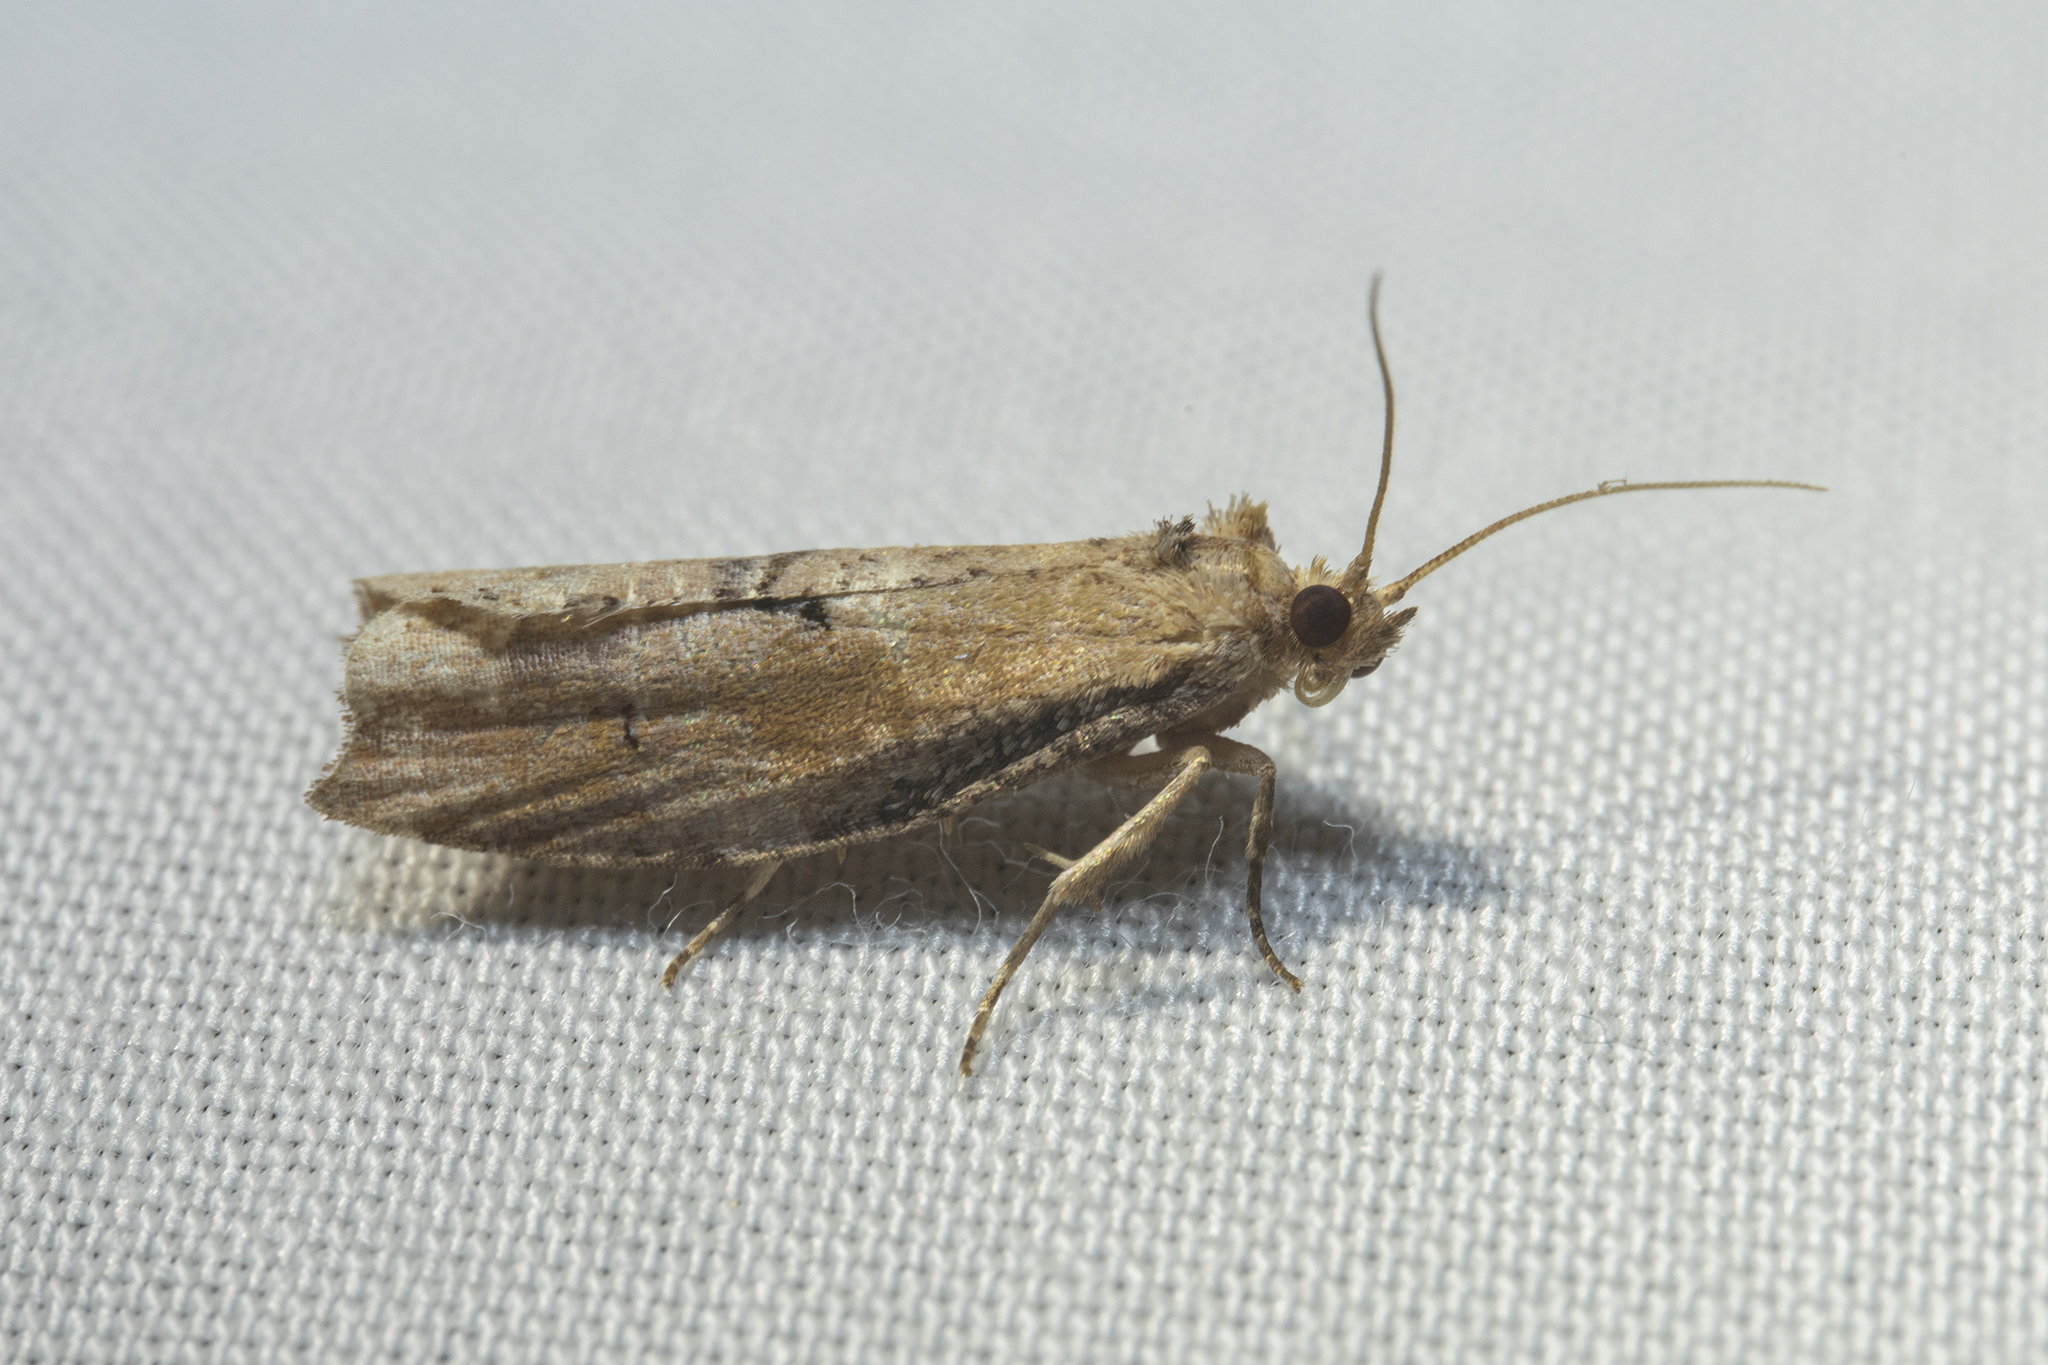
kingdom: Animalia
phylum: Arthropoda
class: Insecta
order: Lepidoptera
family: Tortricidae
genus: Epalxiphora
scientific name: Epalxiphora axenana
